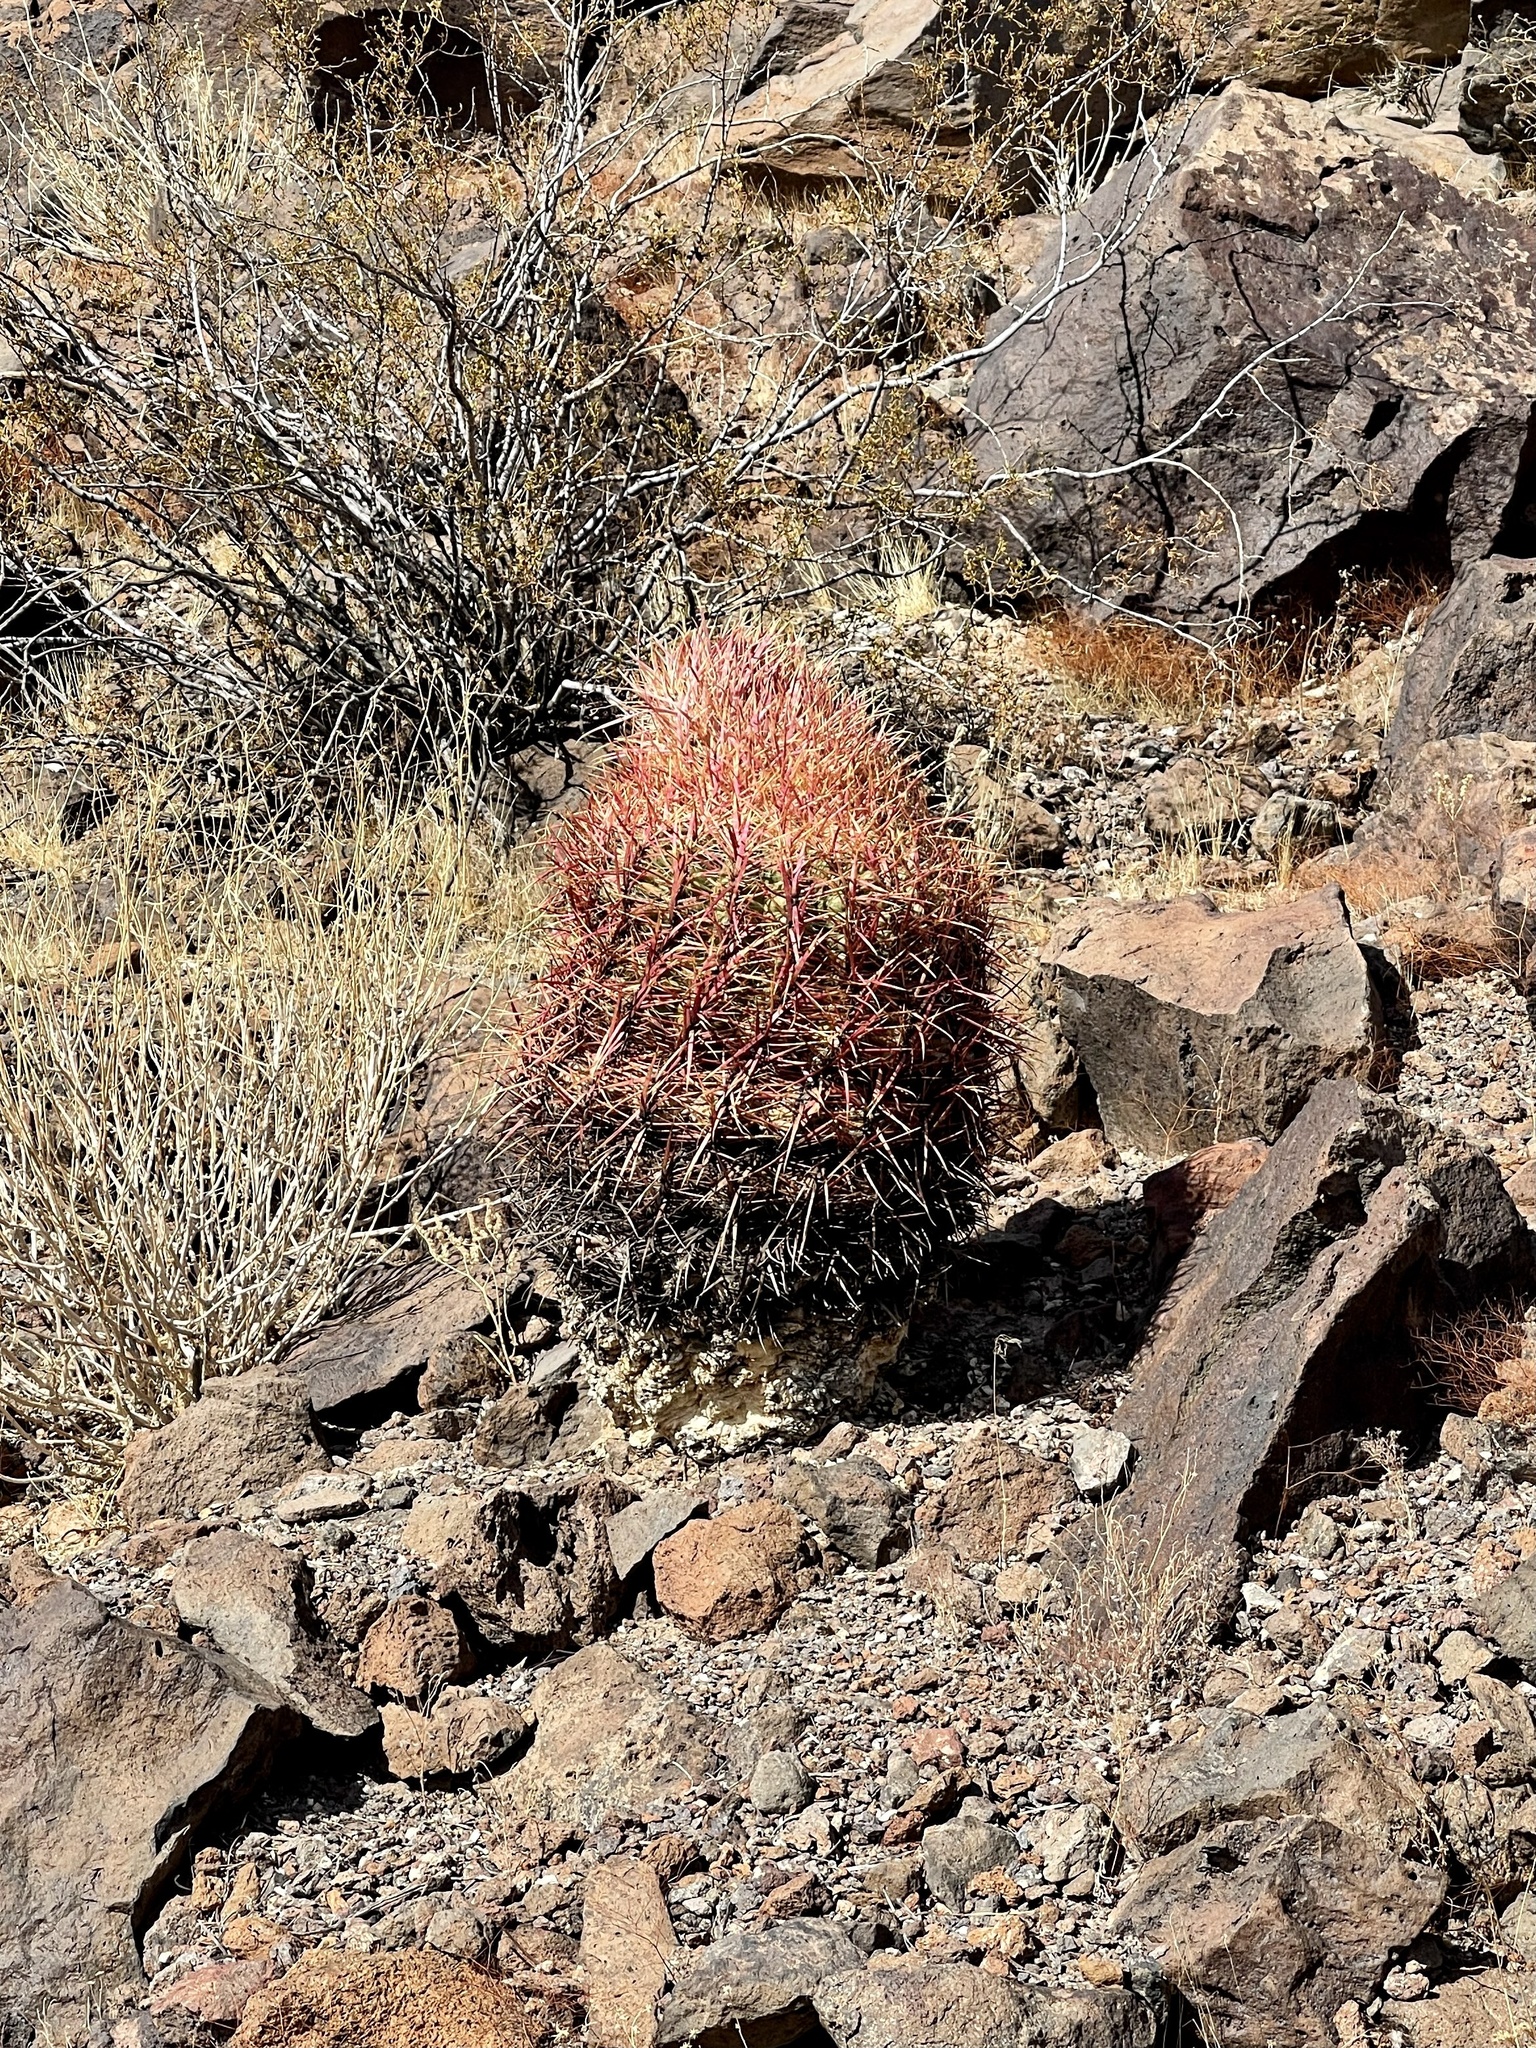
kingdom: Plantae
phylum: Tracheophyta
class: Magnoliopsida
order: Caryophyllales
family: Cactaceae
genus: Ferocactus
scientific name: Ferocactus cylindraceus
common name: California barrel cactus
